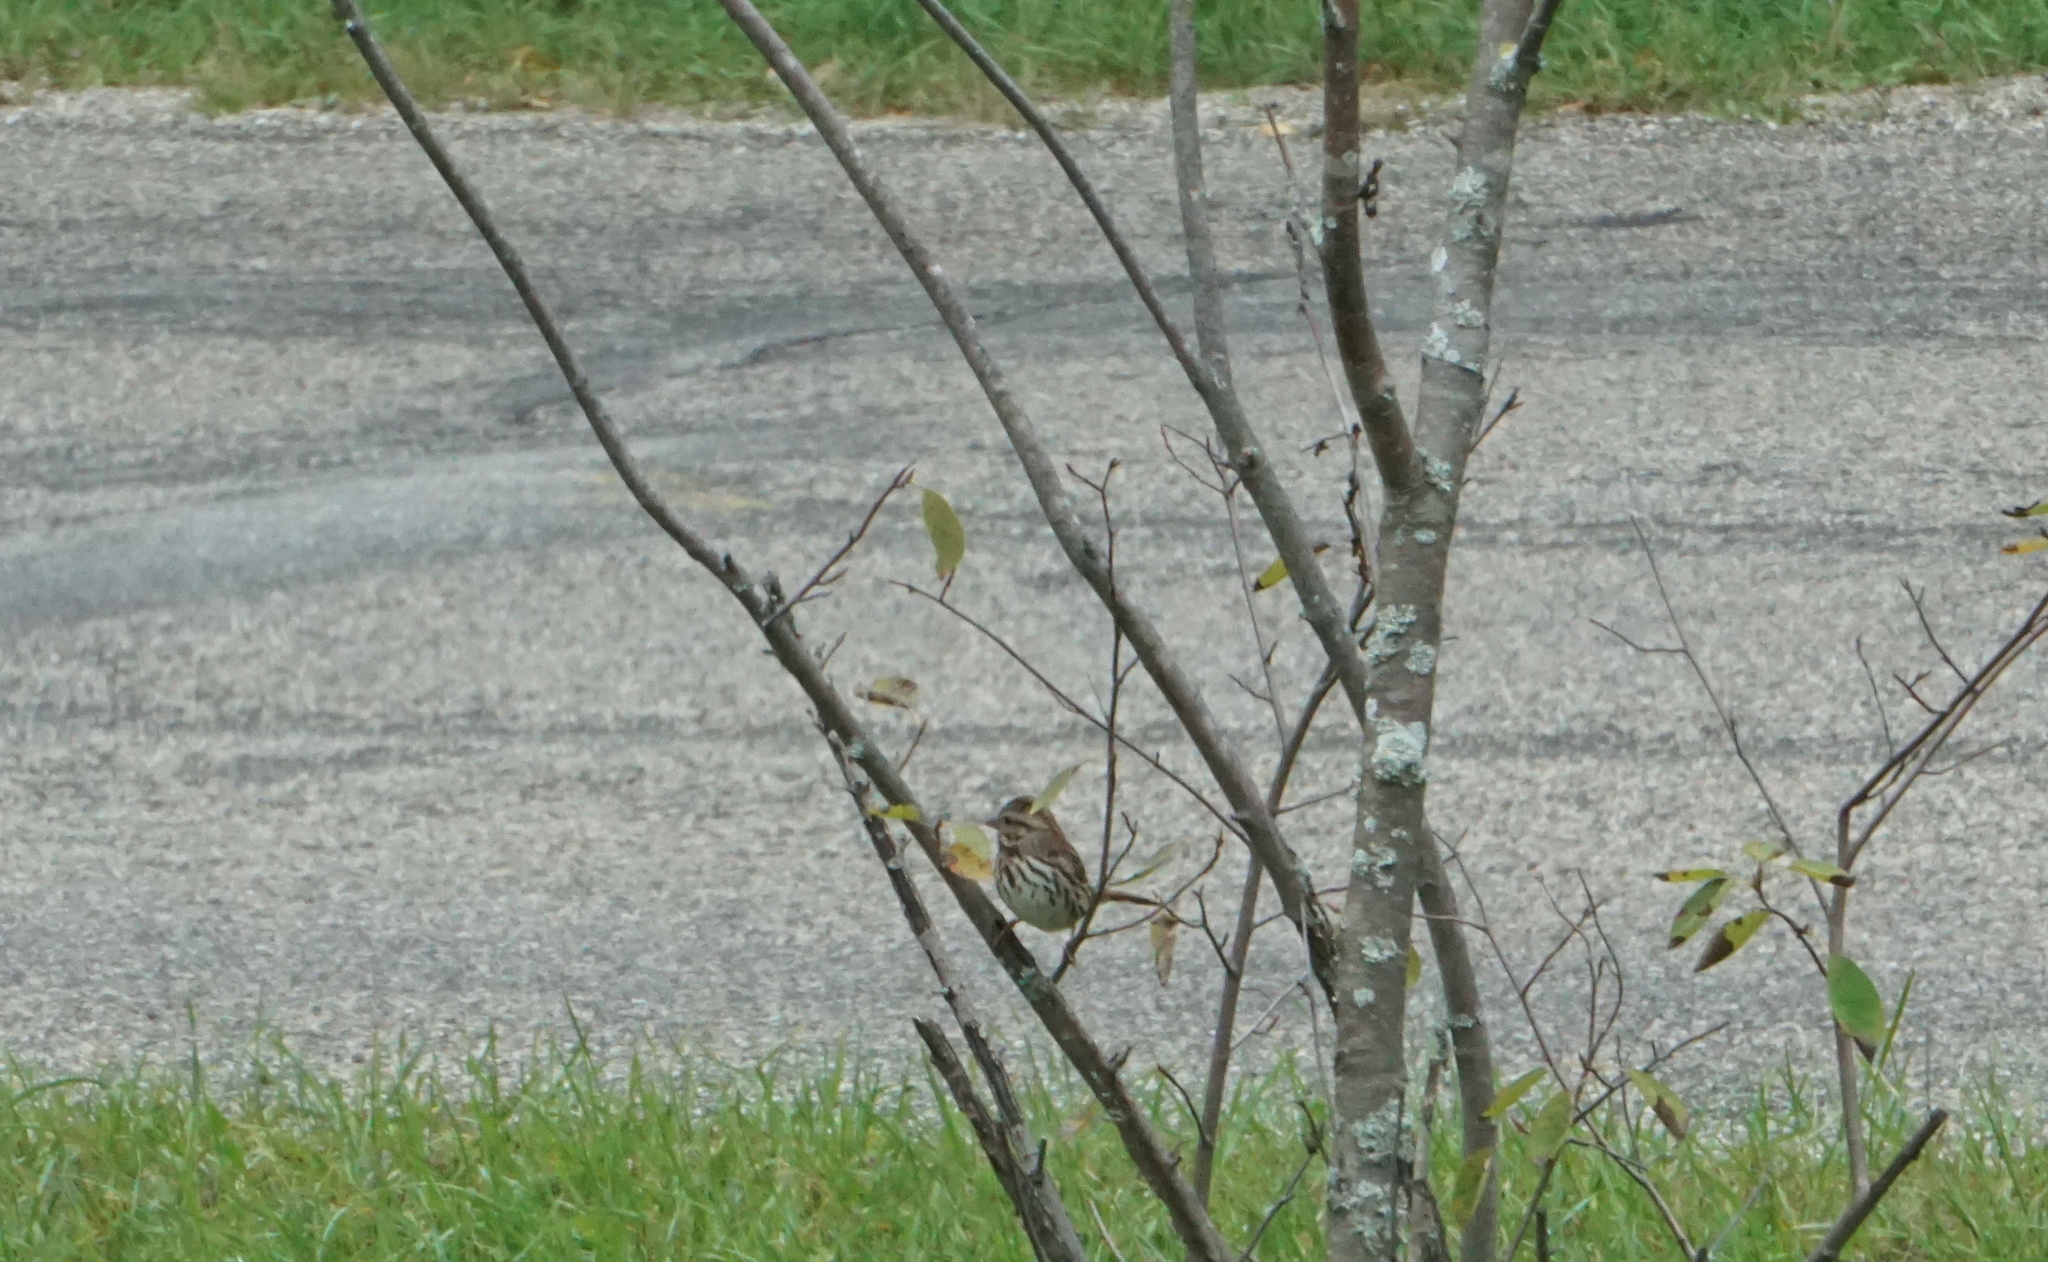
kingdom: Animalia
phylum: Chordata
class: Aves
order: Passeriformes
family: Passerellidae
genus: Melospiza
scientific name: Melospiza melodia
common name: Song sparrow
